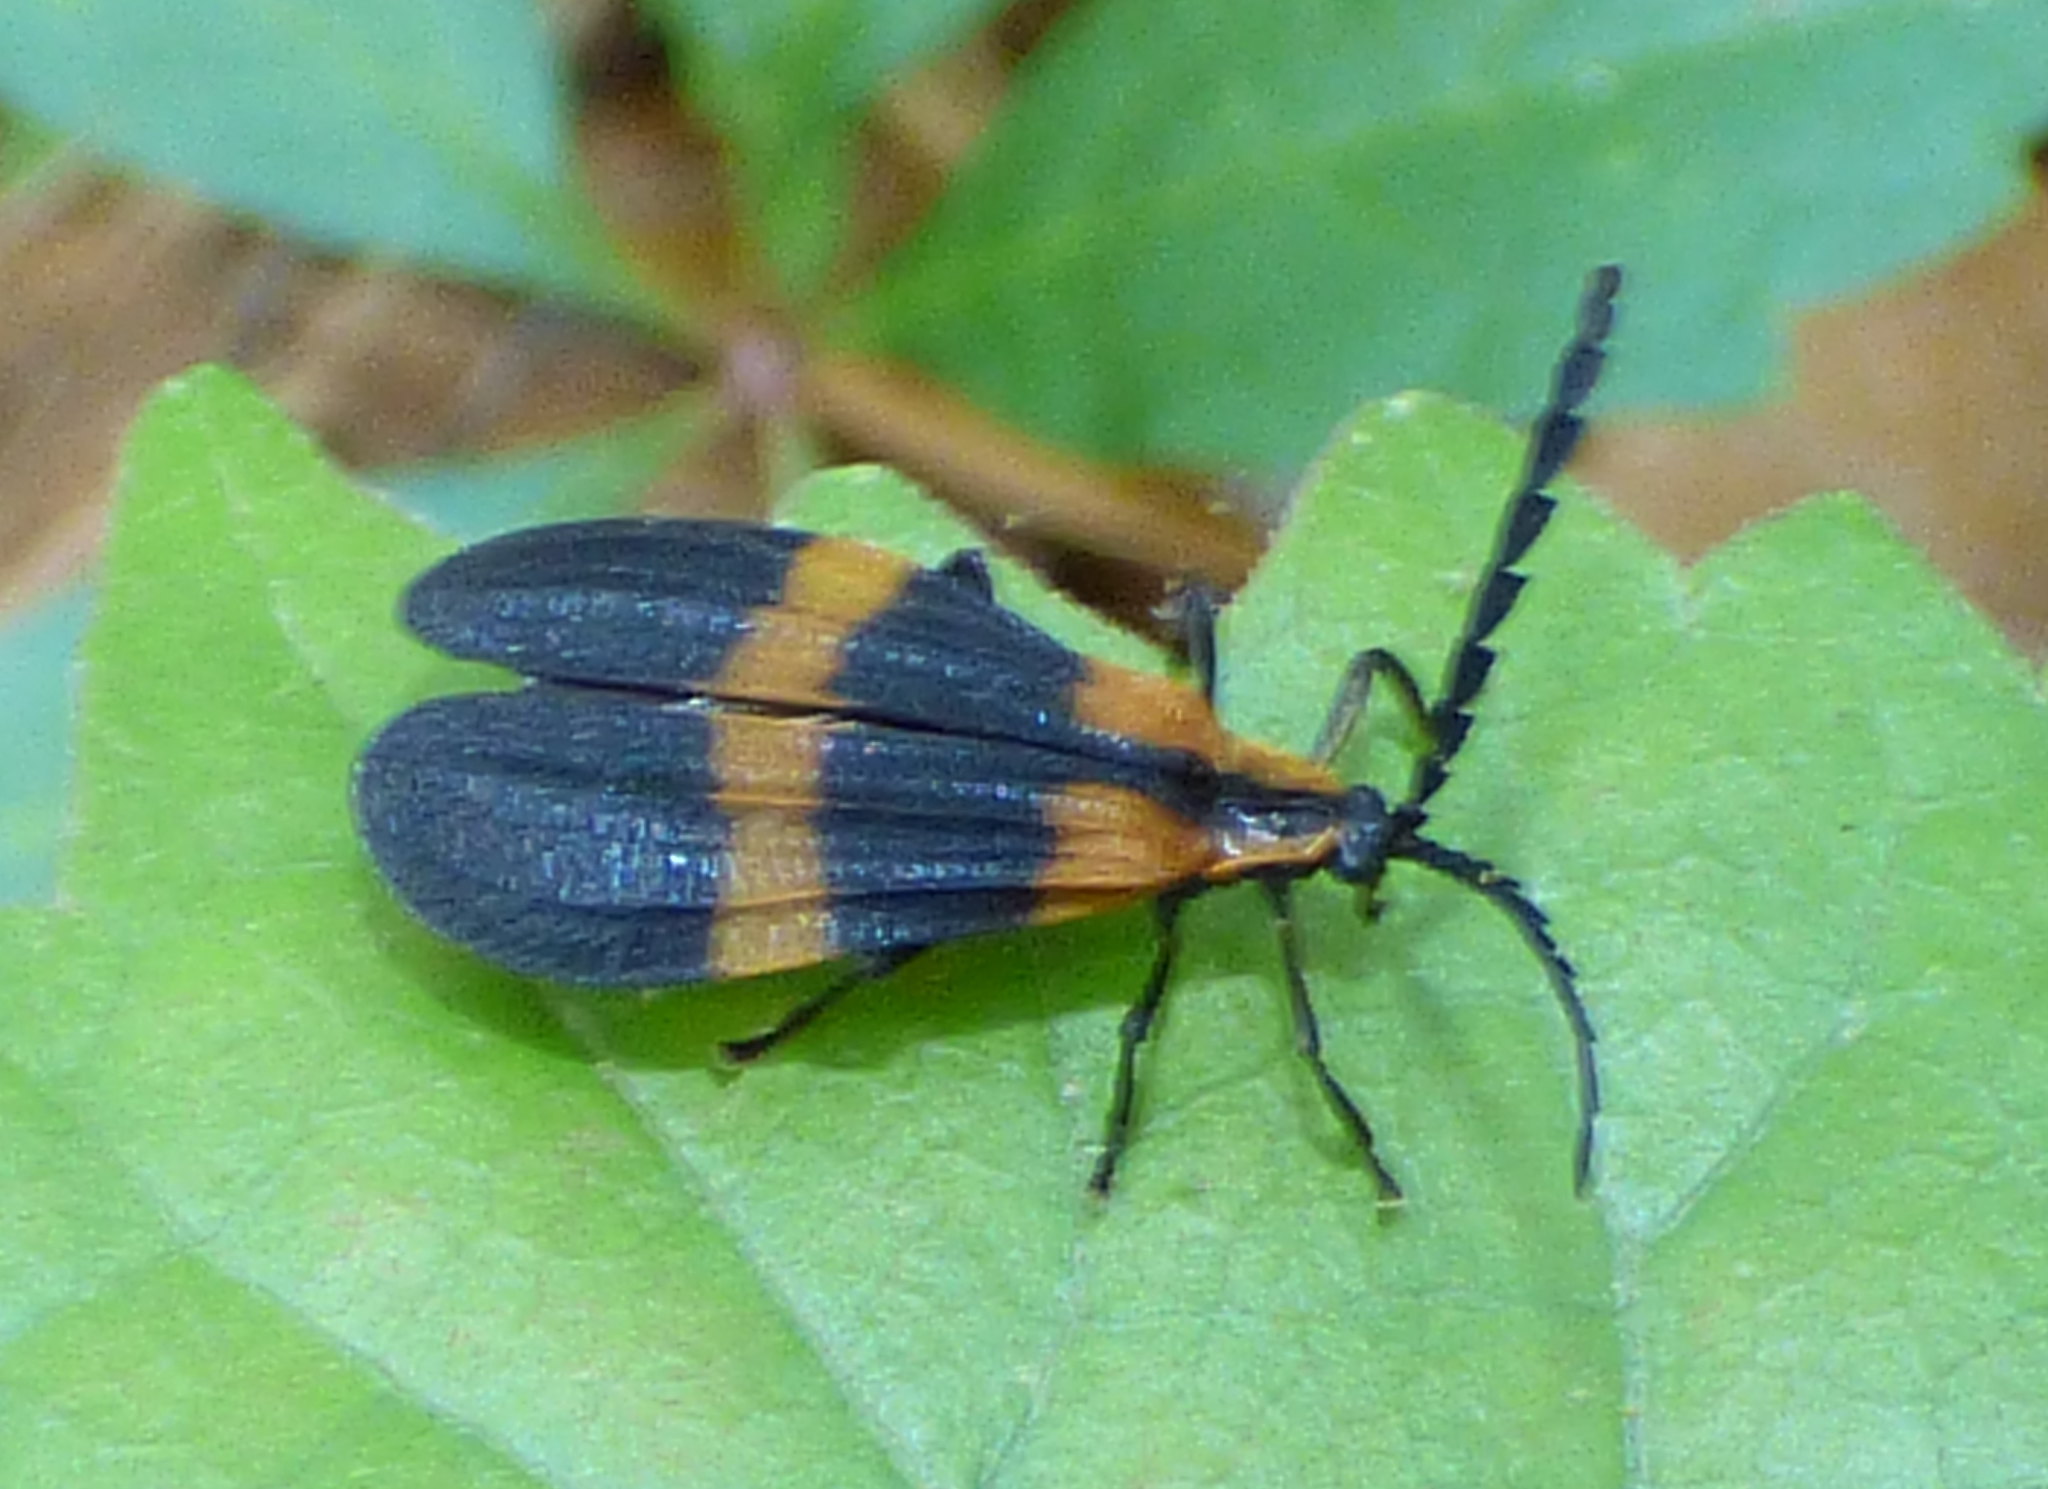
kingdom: Animalia
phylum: Arthropoda
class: Insecta
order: Coleoptera
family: Lycidae
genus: Calopteron
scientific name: Calopteron discrepans
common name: Banded net-winged beetle
